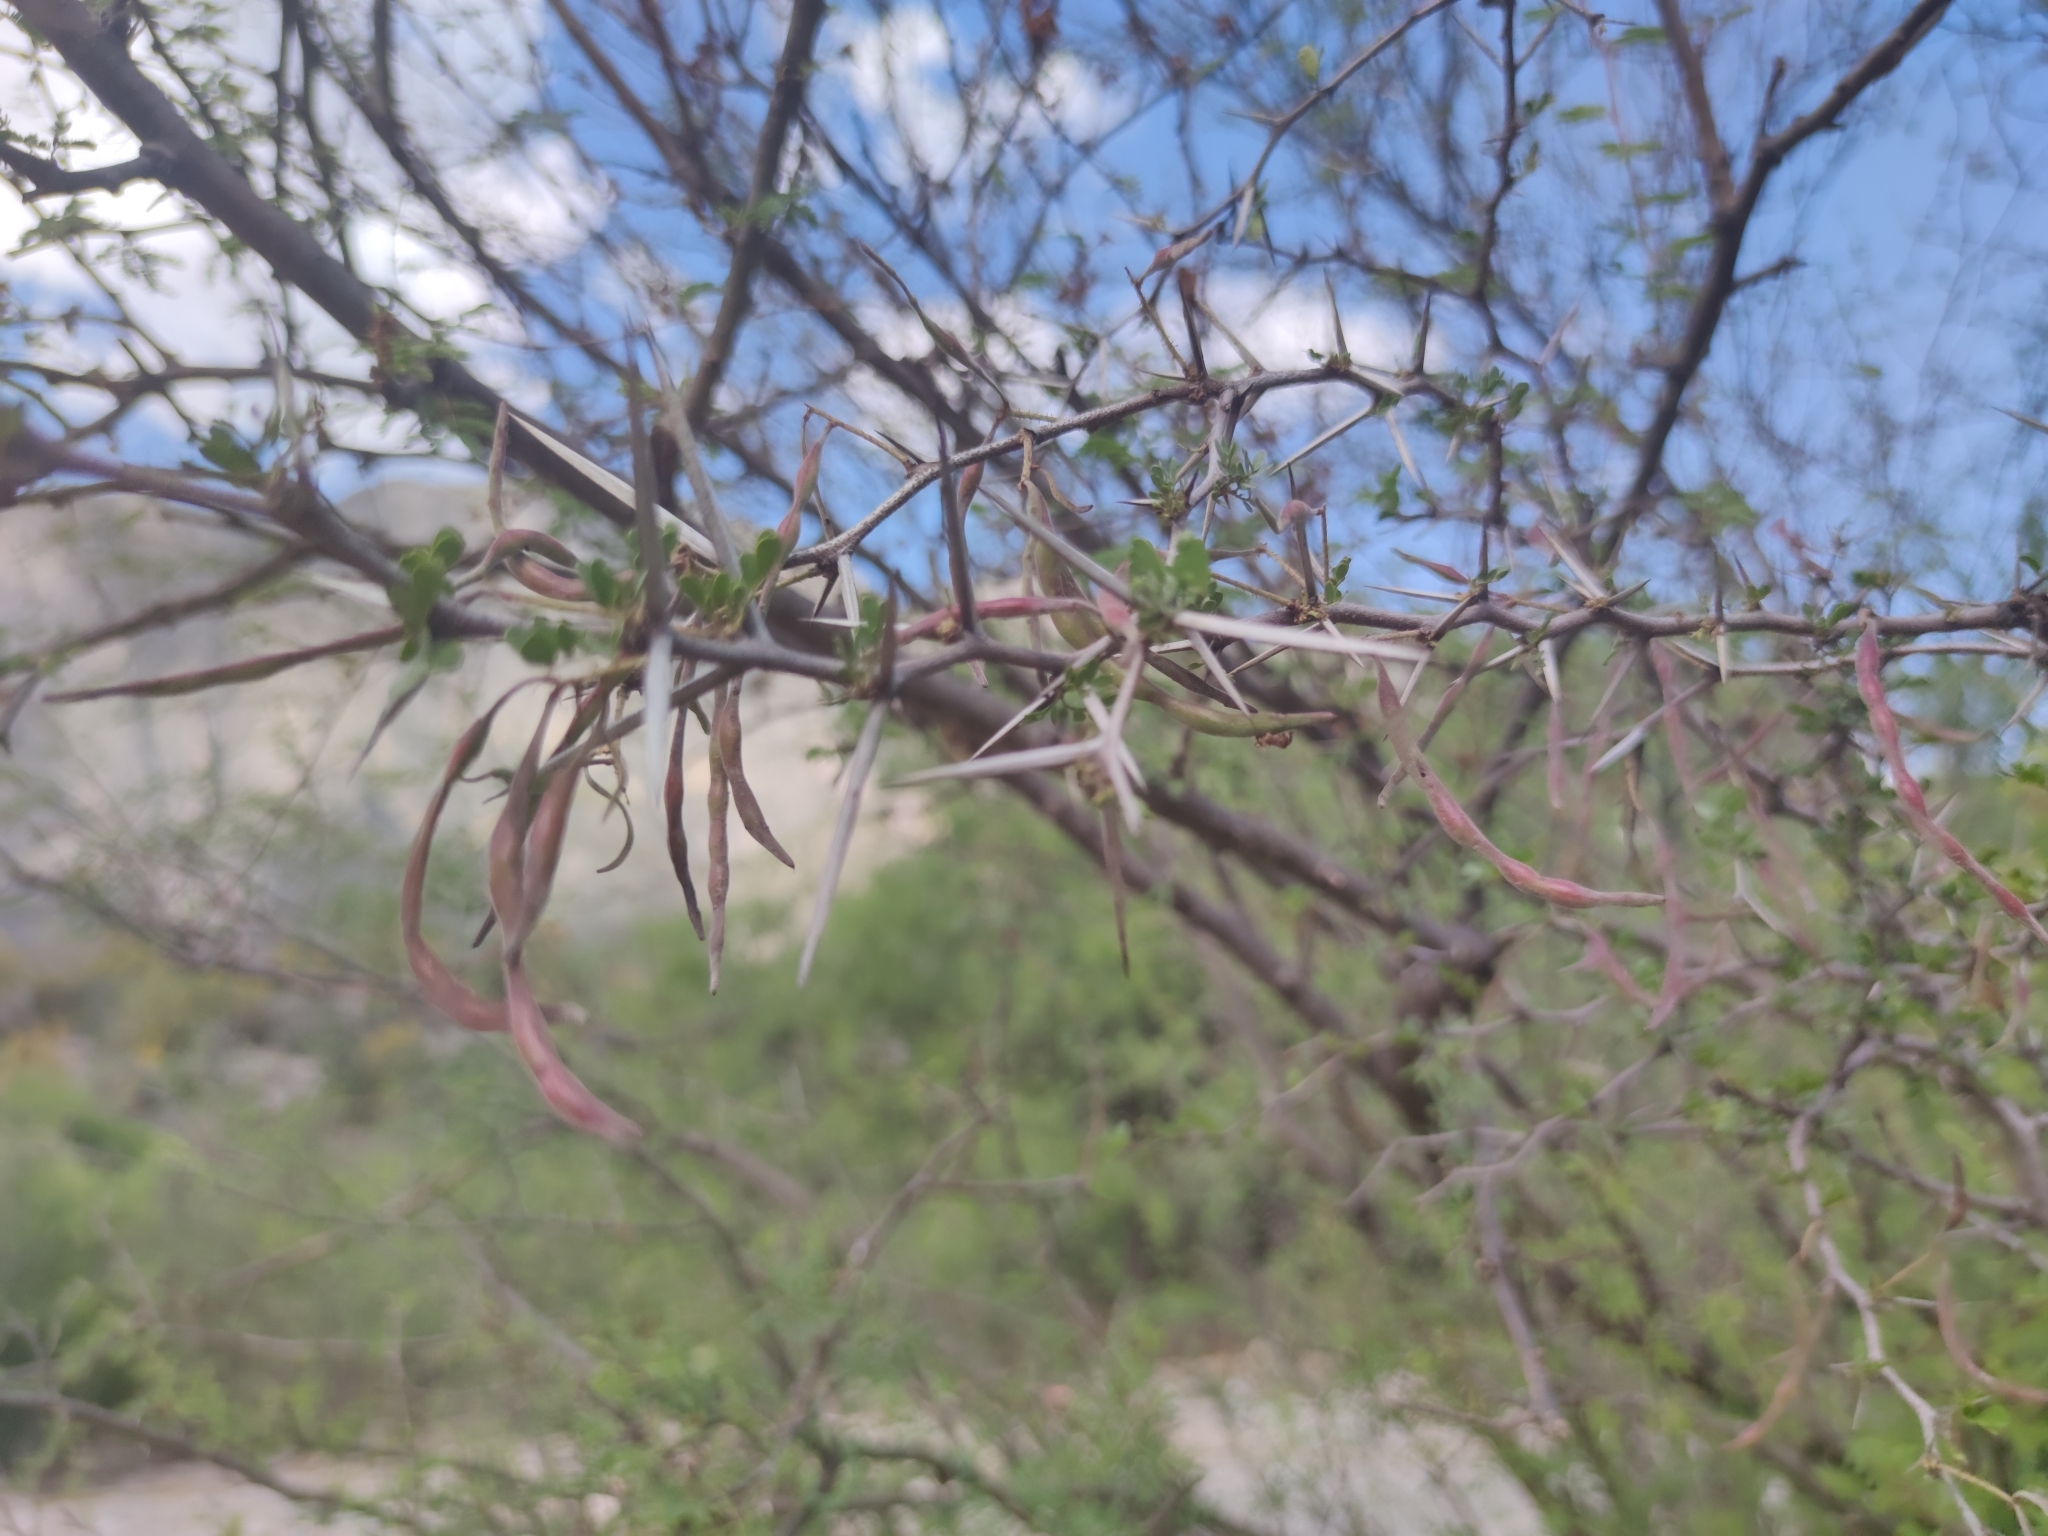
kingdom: Plantae
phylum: Tracheophyta
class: Magnoliopsida
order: Fabales
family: Fabaceae
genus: Vachellia
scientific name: Vachellia rigidula
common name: Blackbrush
